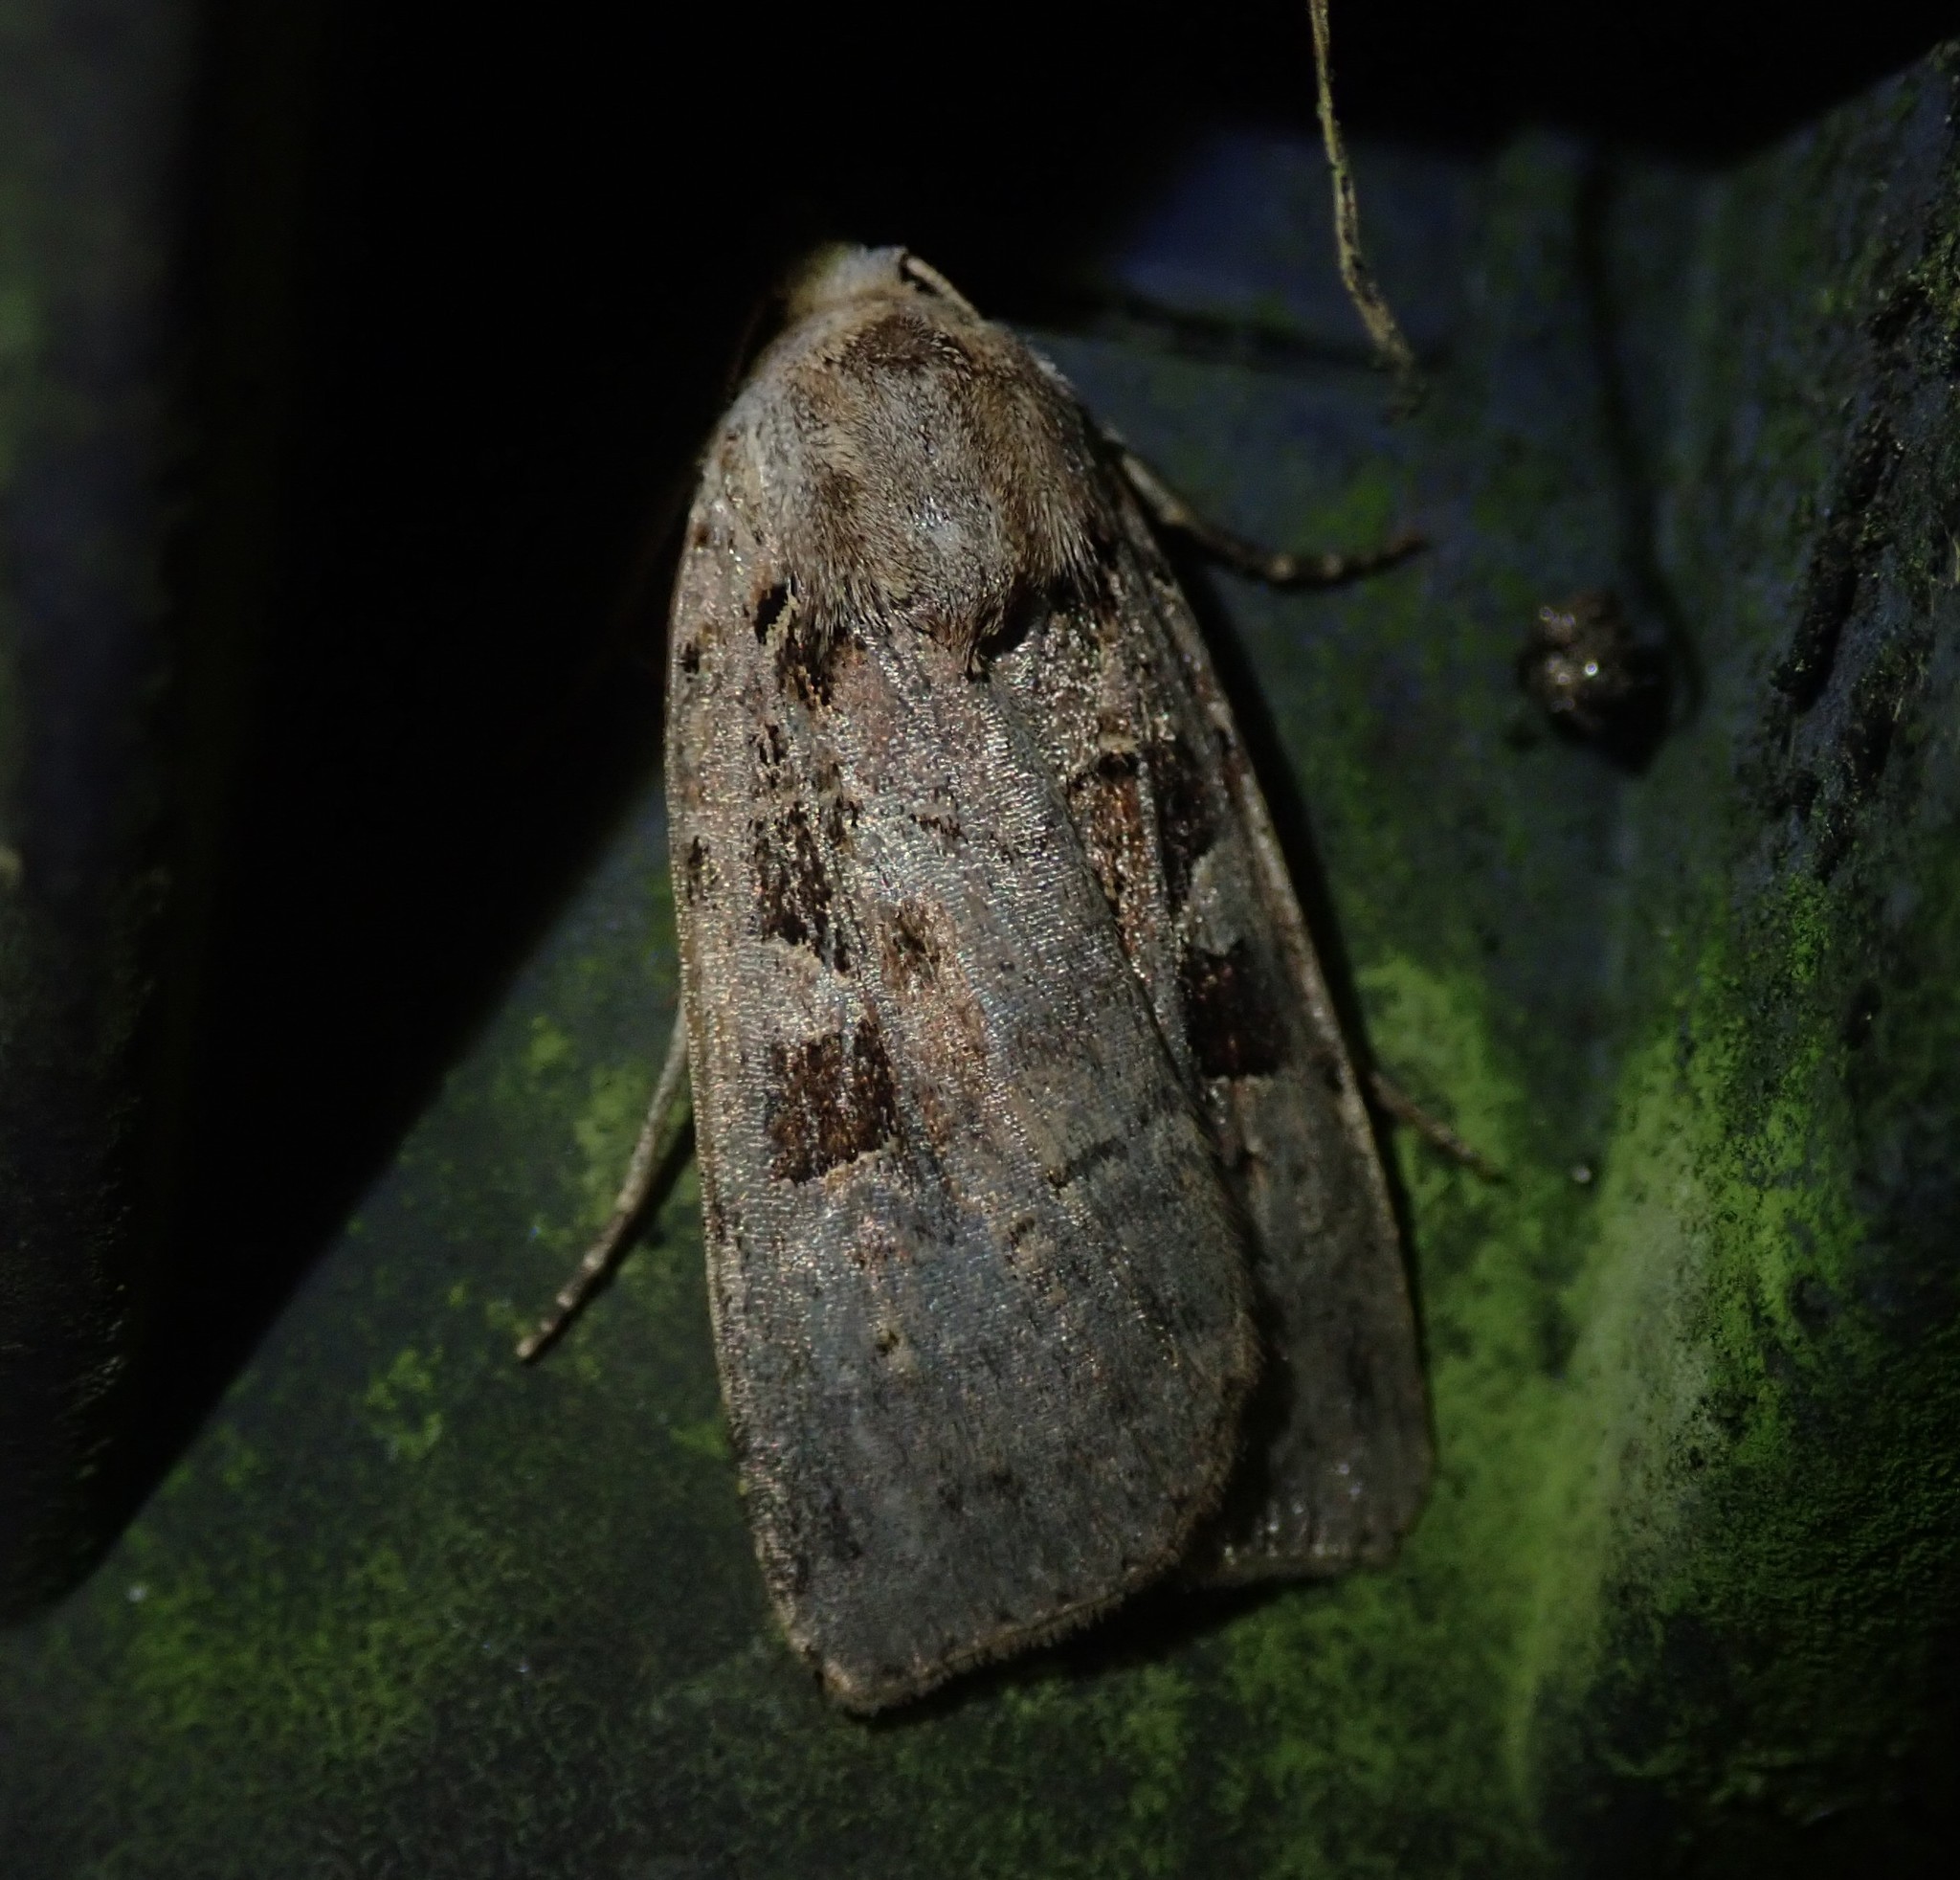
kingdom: Animalia
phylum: Arthropoda
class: Insecta
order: Lepidoptera
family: Noctuidae
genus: Xestia
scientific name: Xestia triangulum
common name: Double square-spot
